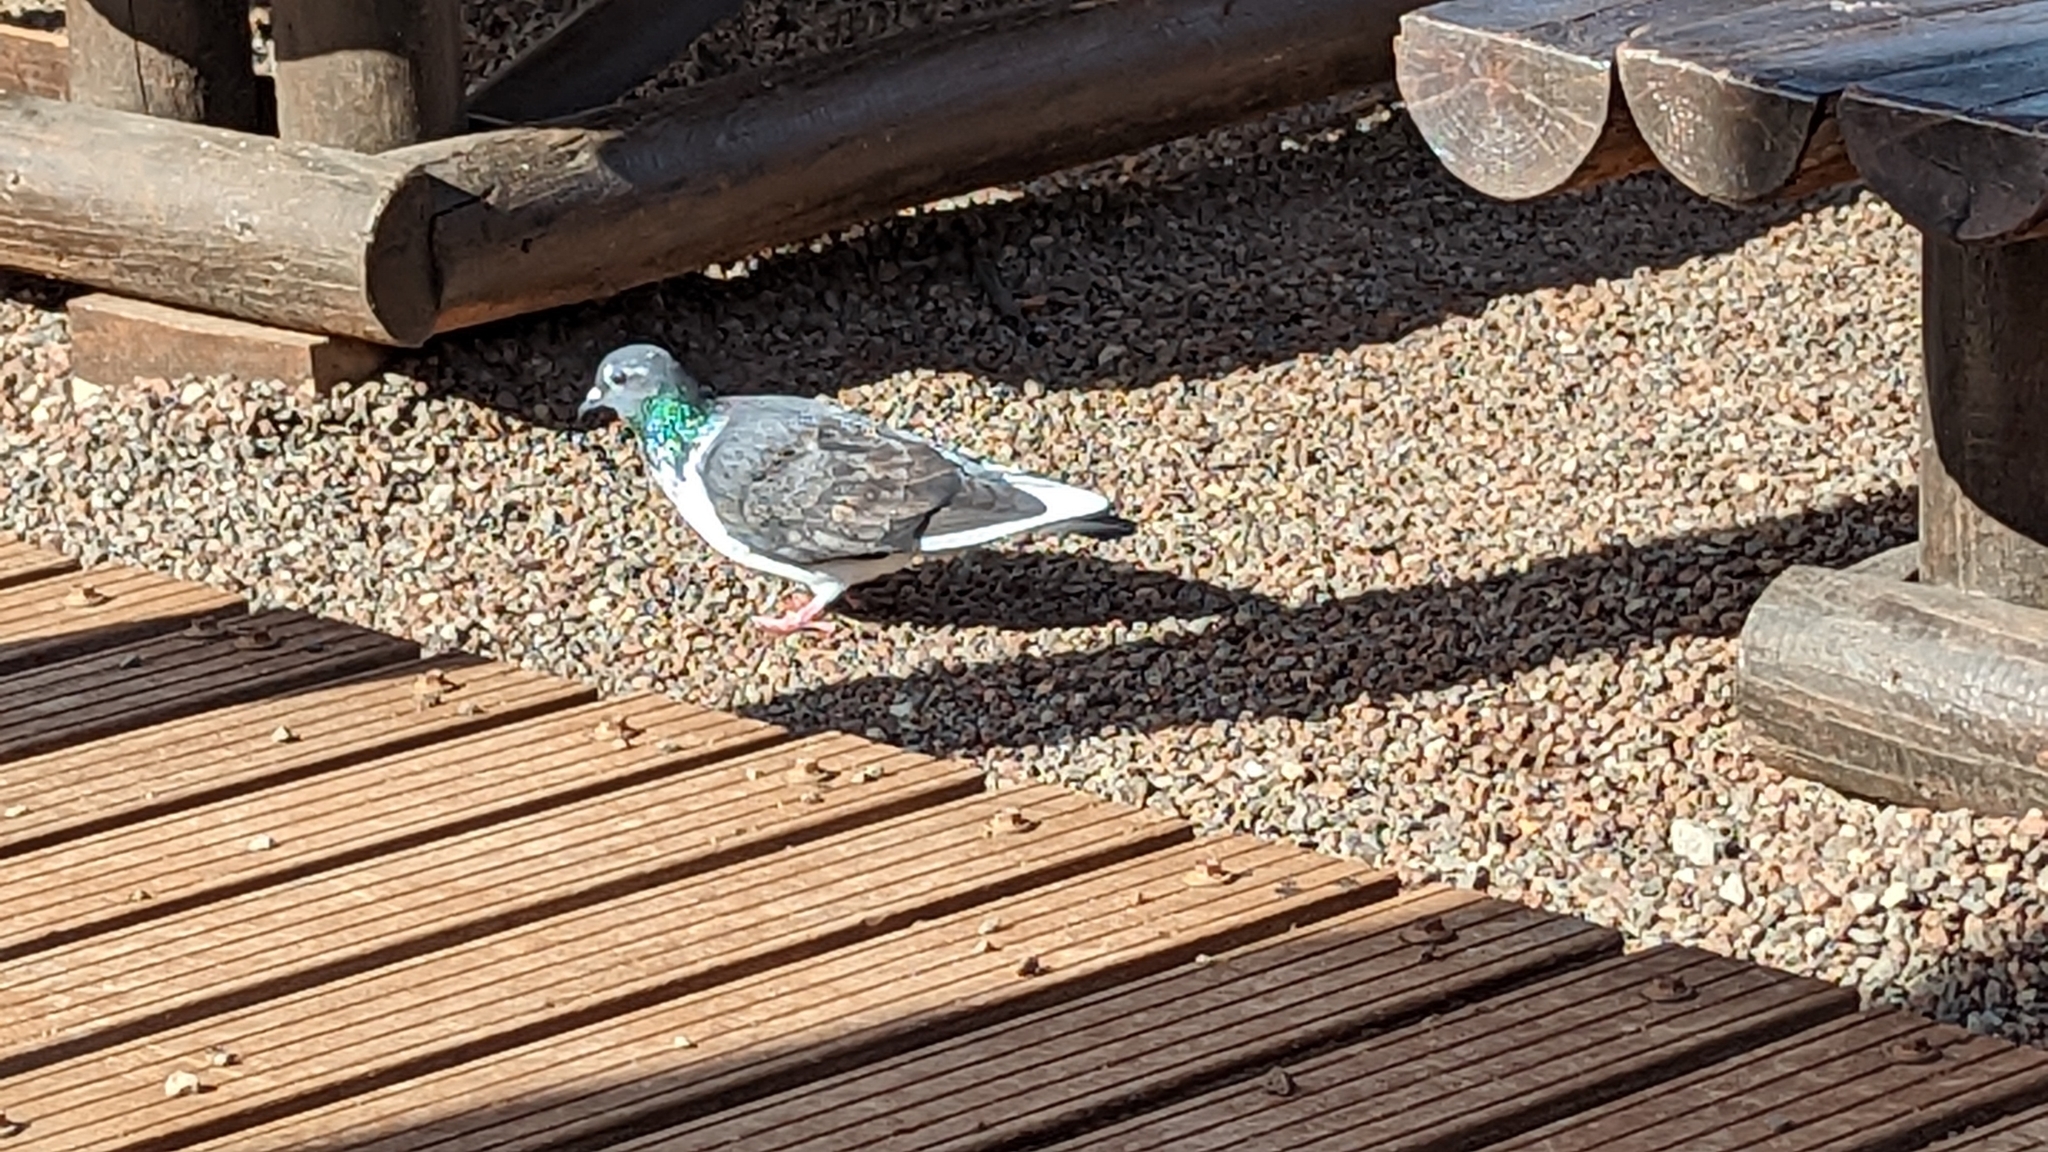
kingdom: Animalia
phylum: Chordata
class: Aves
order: Columbiformes
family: Columbidae
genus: Columba
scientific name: Columba livia
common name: Rock pigeon
